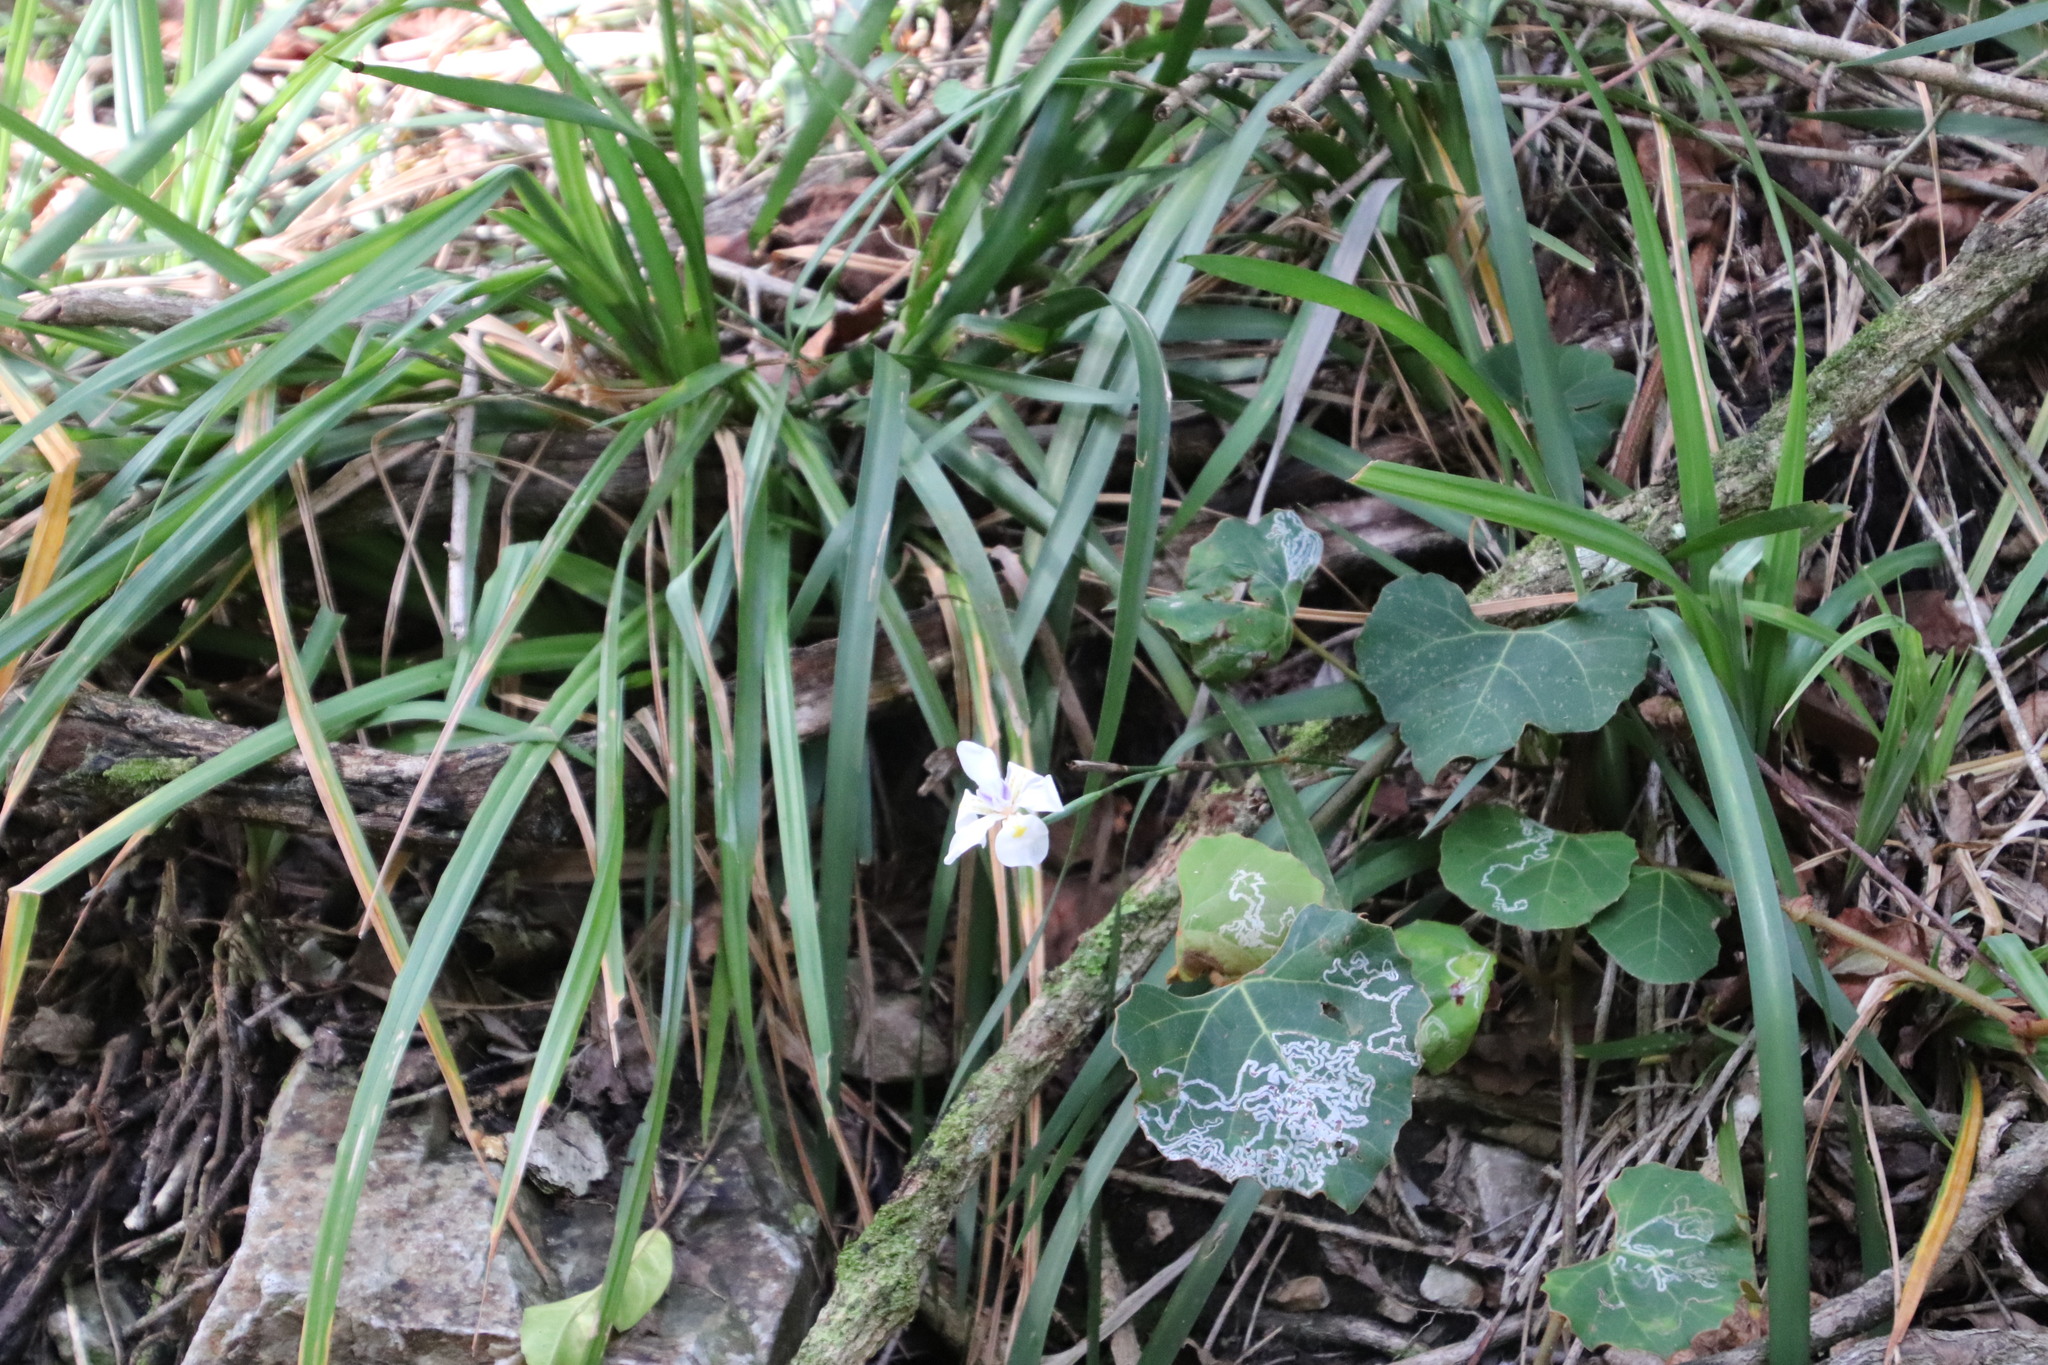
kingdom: Plantae
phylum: Tracheophyta
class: Liliopsida
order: Asparagales
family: Iridaceae
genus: Dietes
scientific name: Dietes iridioides
